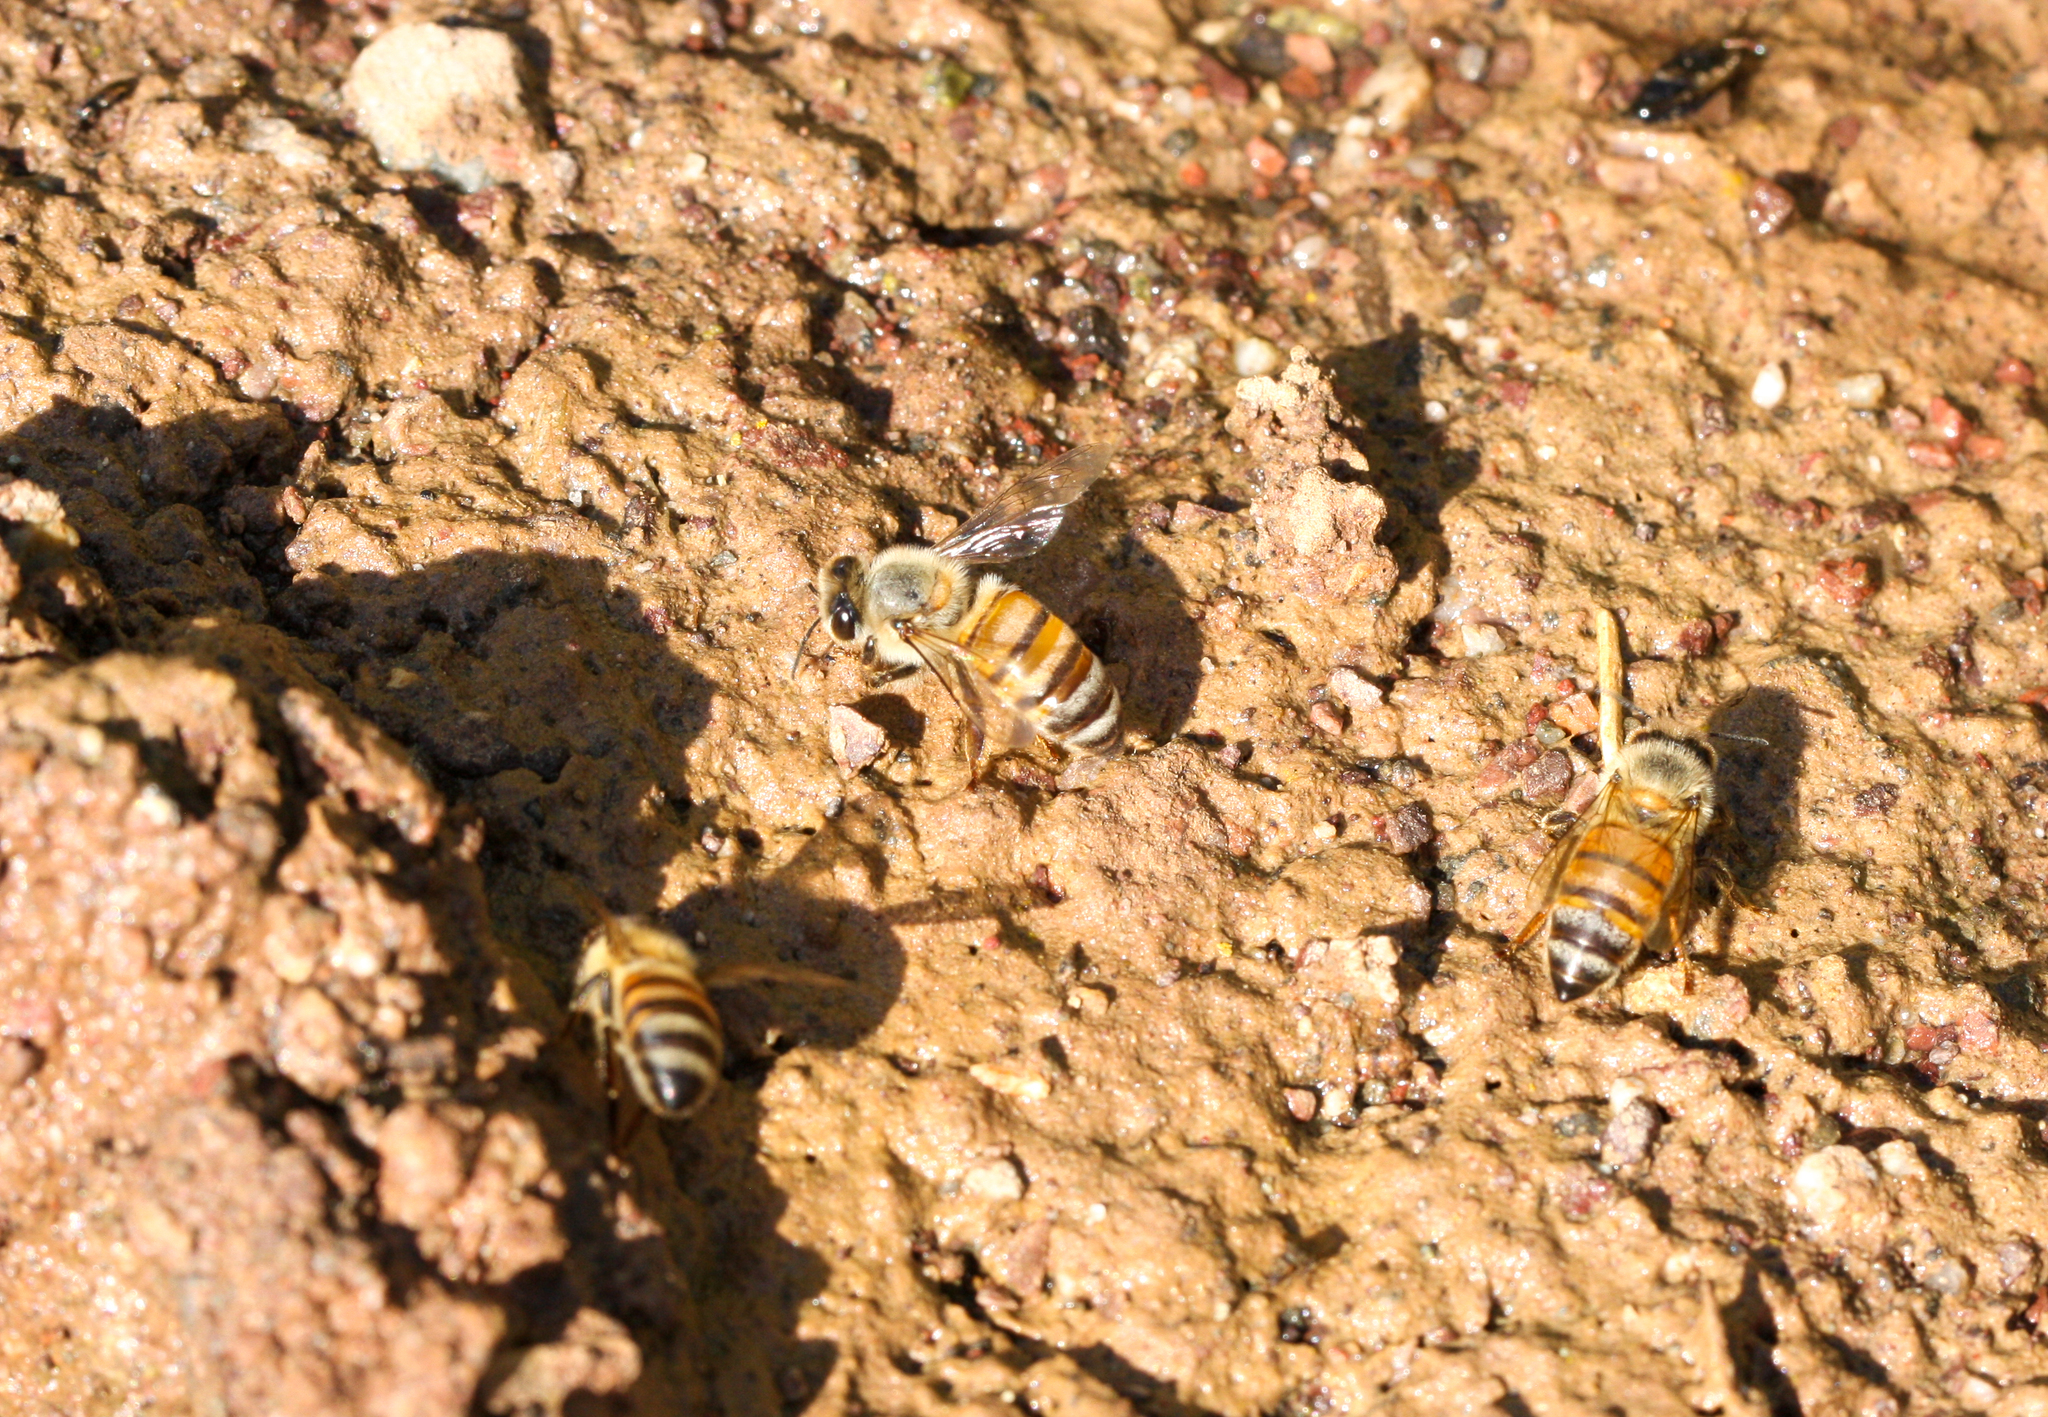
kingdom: Animalia
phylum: Arthropoda
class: Insecta
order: Hymenoptera
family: Apidae
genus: Apis
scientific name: Apis mellifera
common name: Honey bee
